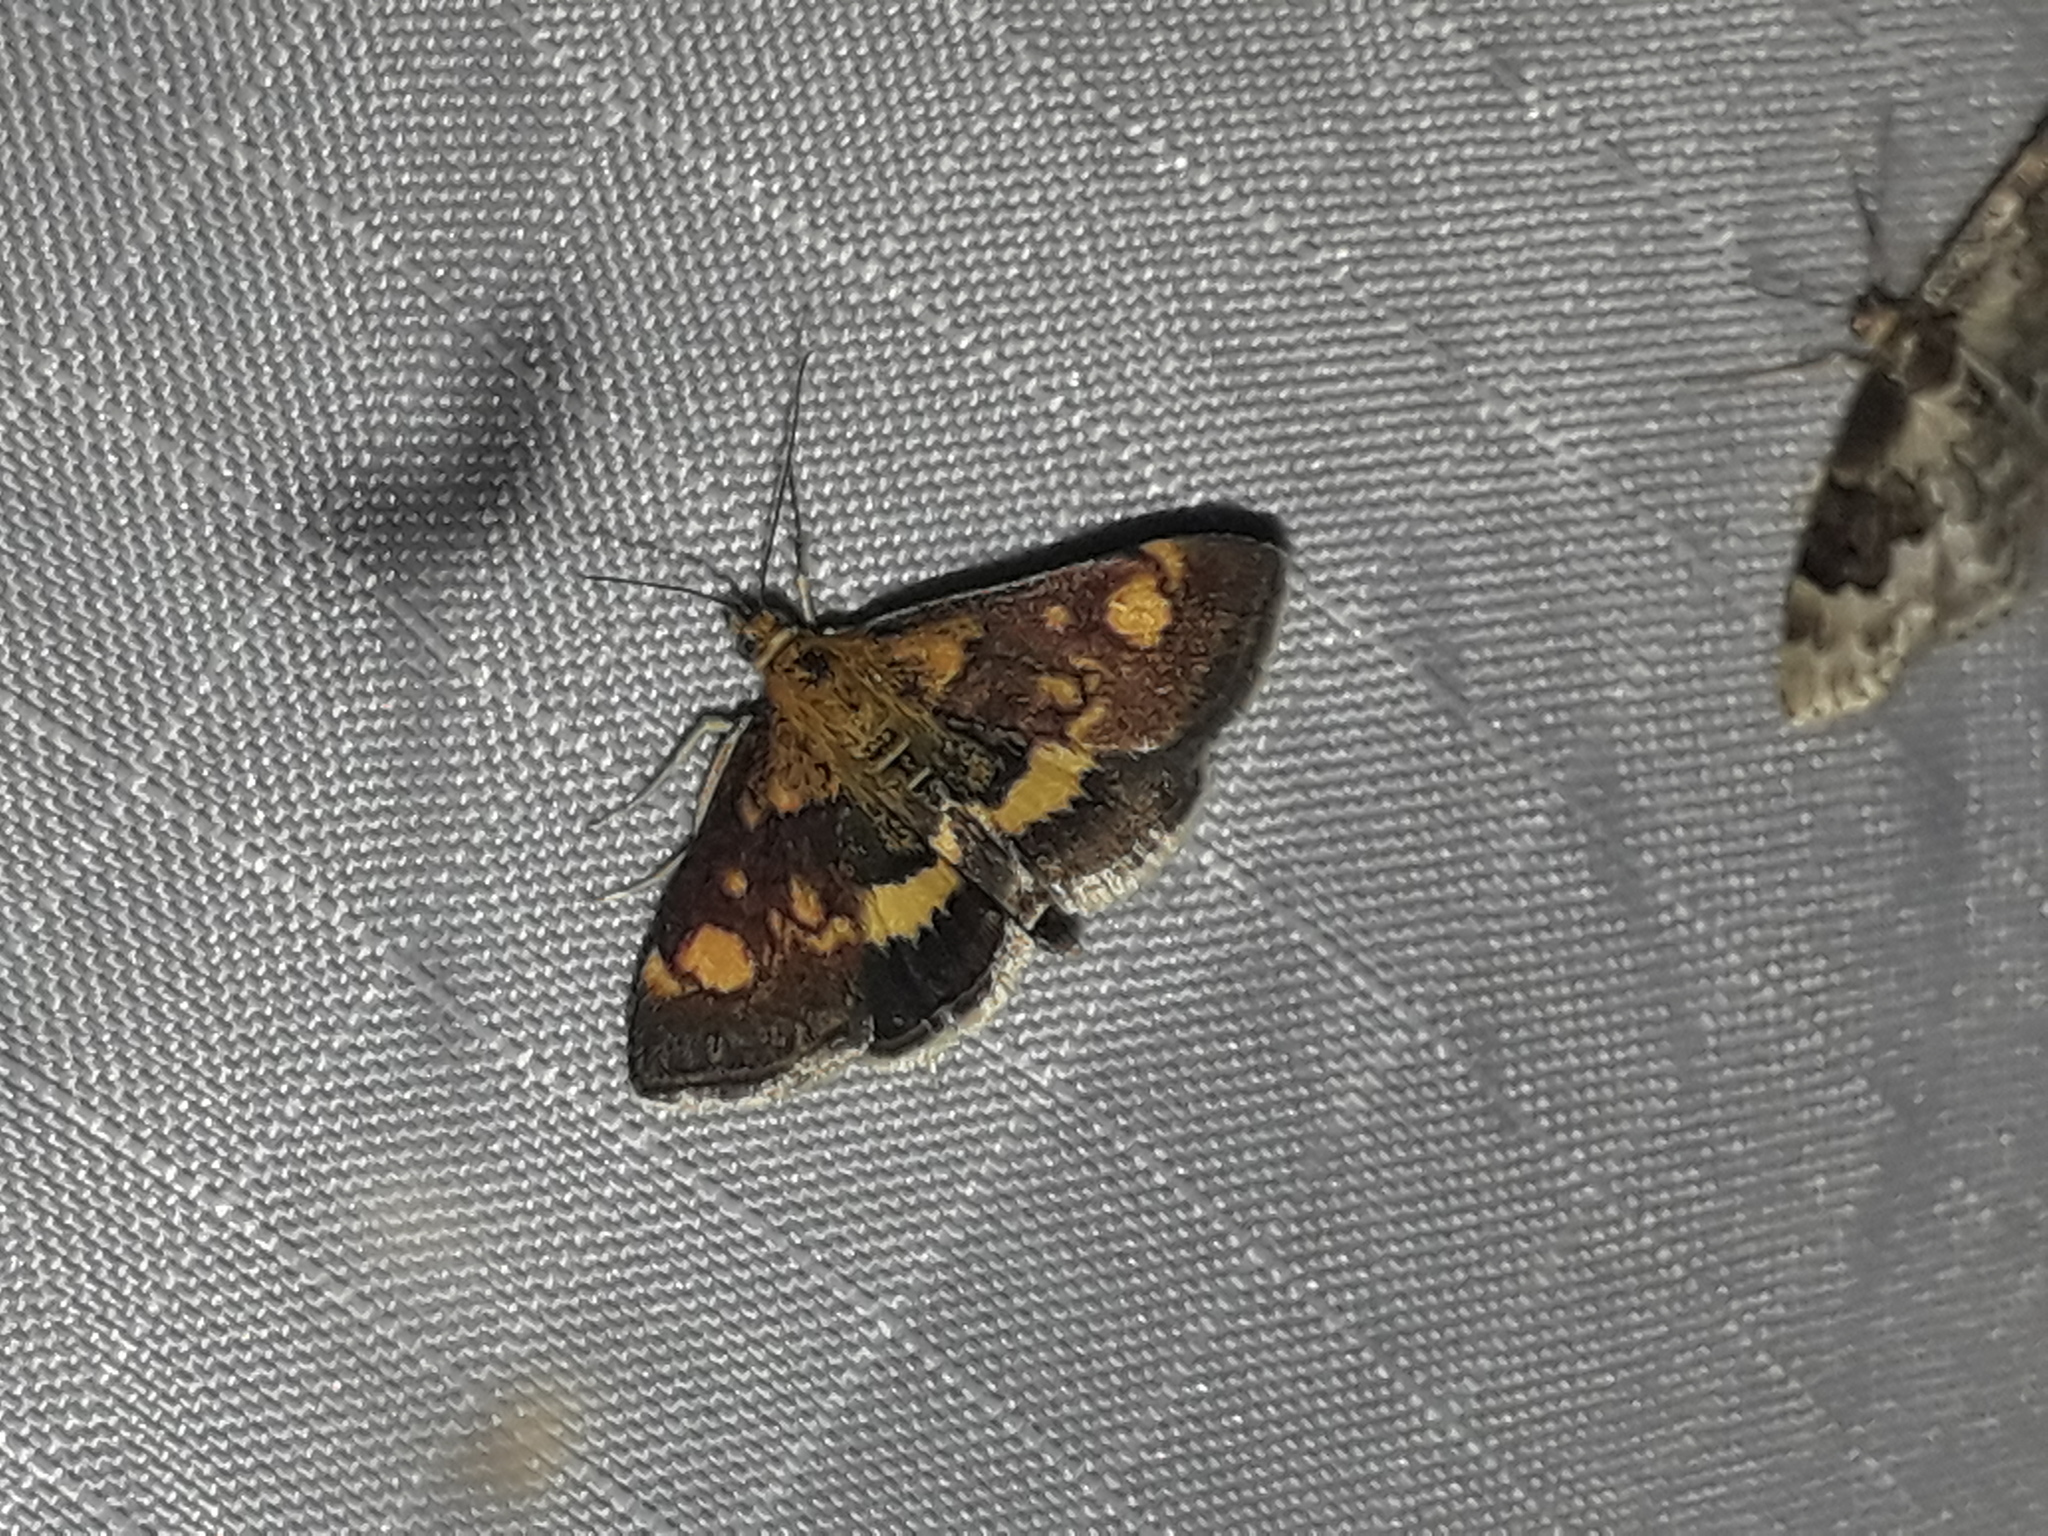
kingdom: Animalia
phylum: Arthropoda
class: Insecta
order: Lepidoptera
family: Crambidae
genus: Pyrausta
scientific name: Pyrausta aurata
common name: Small purple & gold
